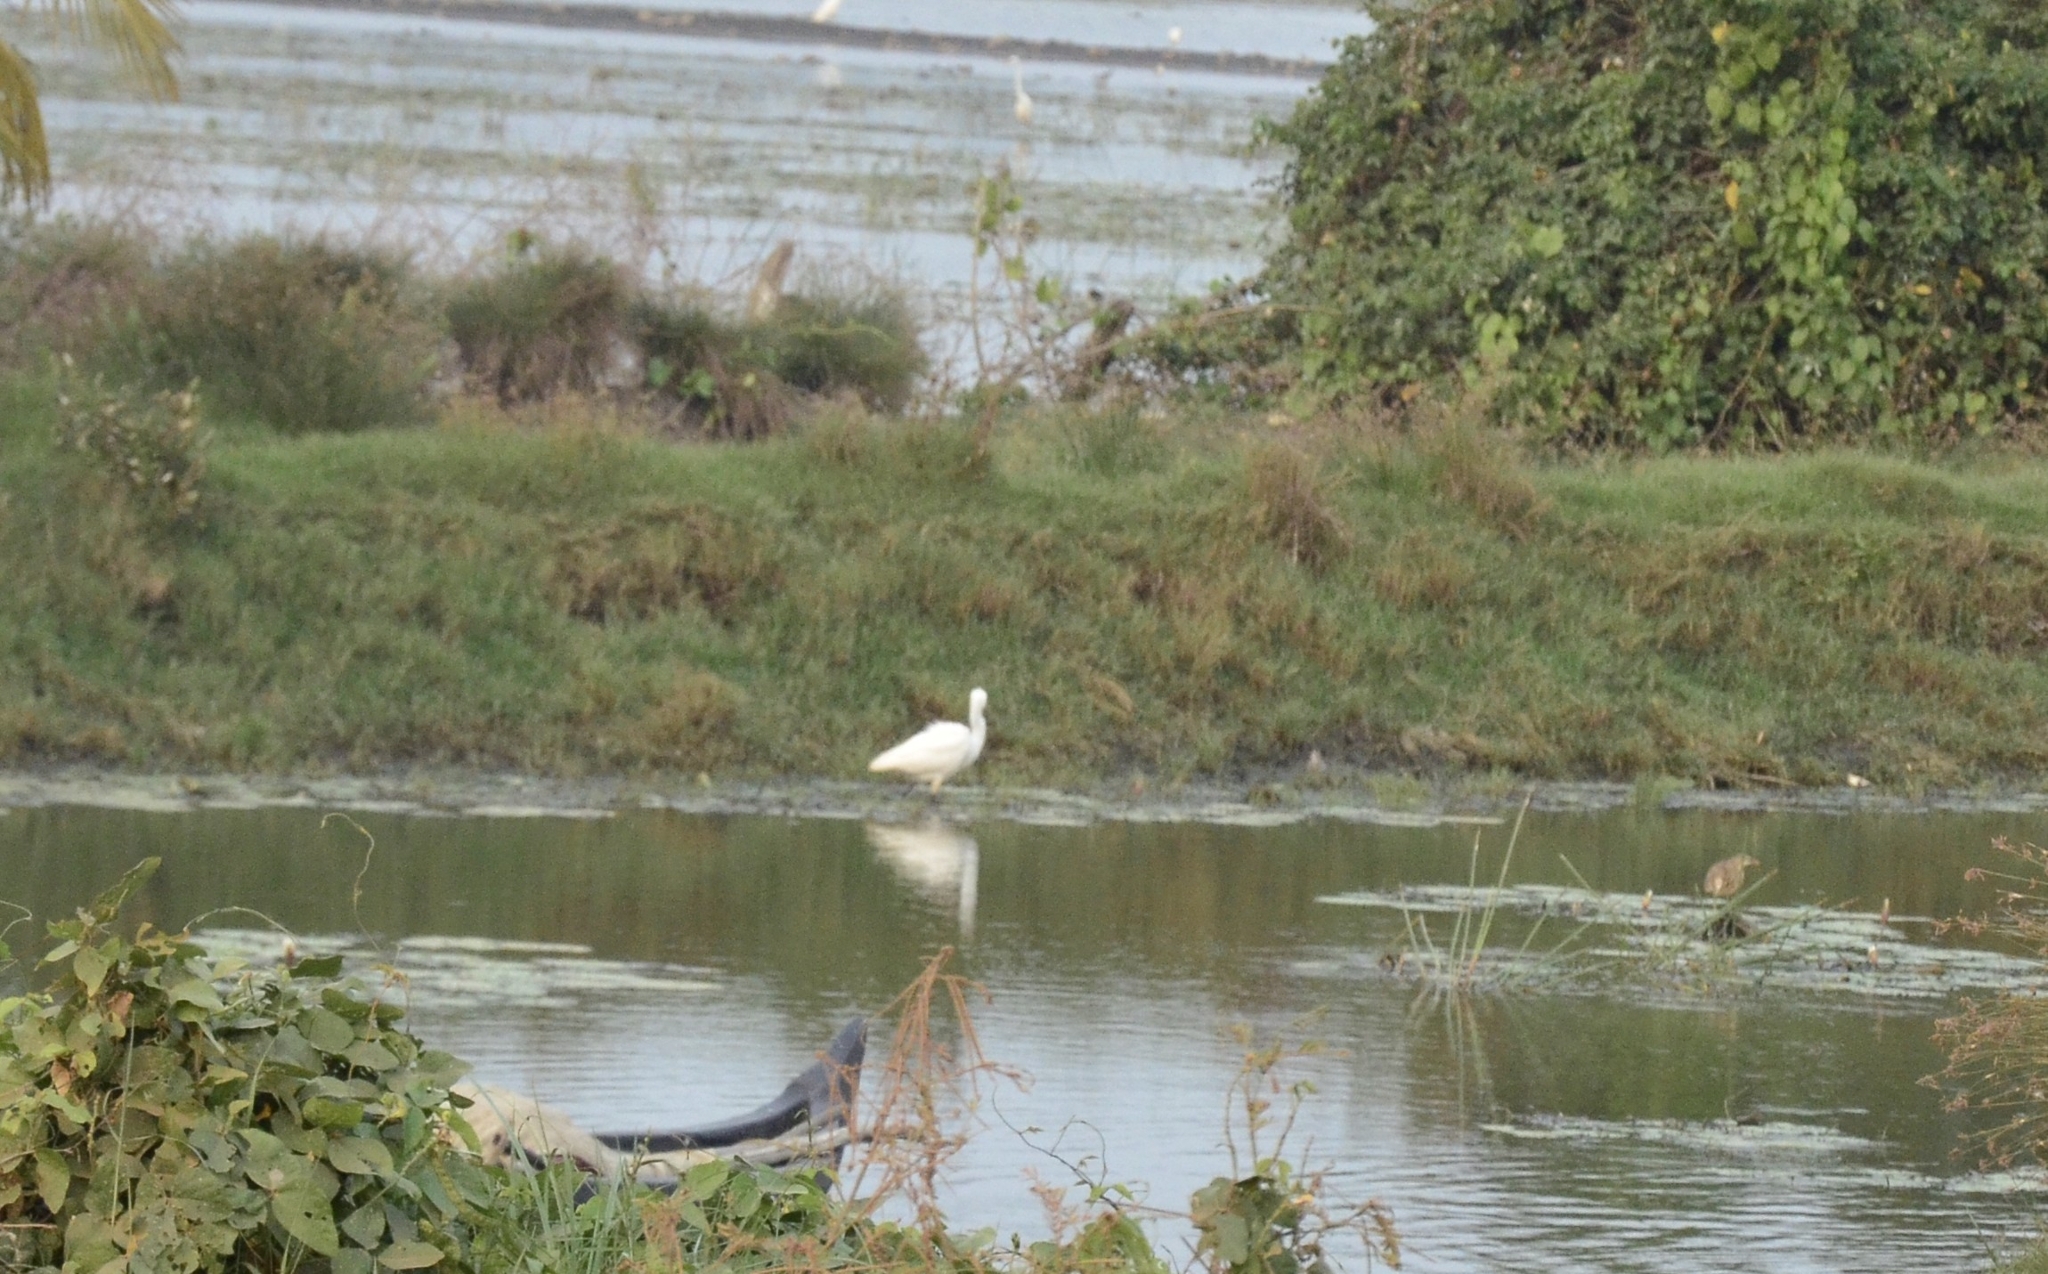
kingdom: Animalia
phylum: Chordata
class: Aves
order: Pelecaniformes
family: Ardeidae
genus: Egretta
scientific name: Egretta garzetta
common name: Little egret
